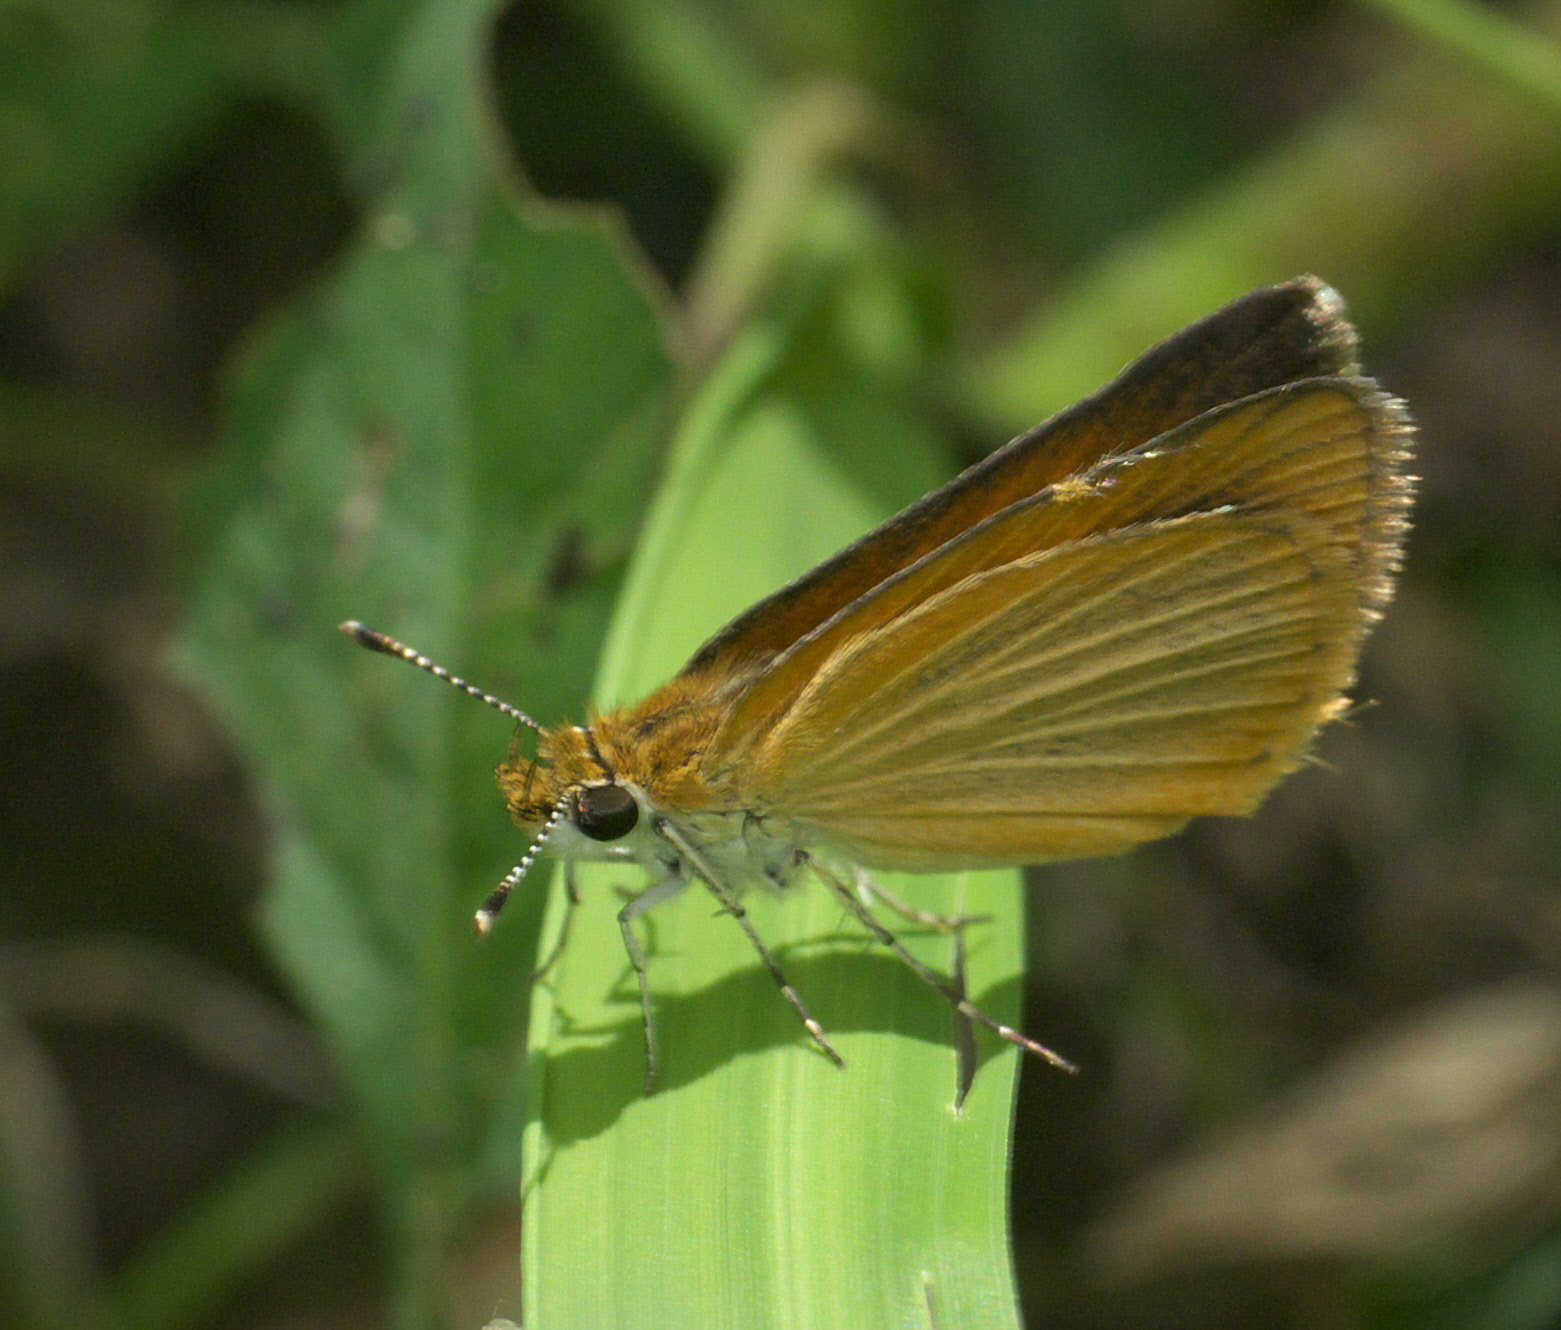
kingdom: Animalia
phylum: Arthropoda
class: Insecta
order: Lepidoptera
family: Hesperiidae
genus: Ancyloxypha
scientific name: Ancyloxypha numitor
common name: Least skipper
